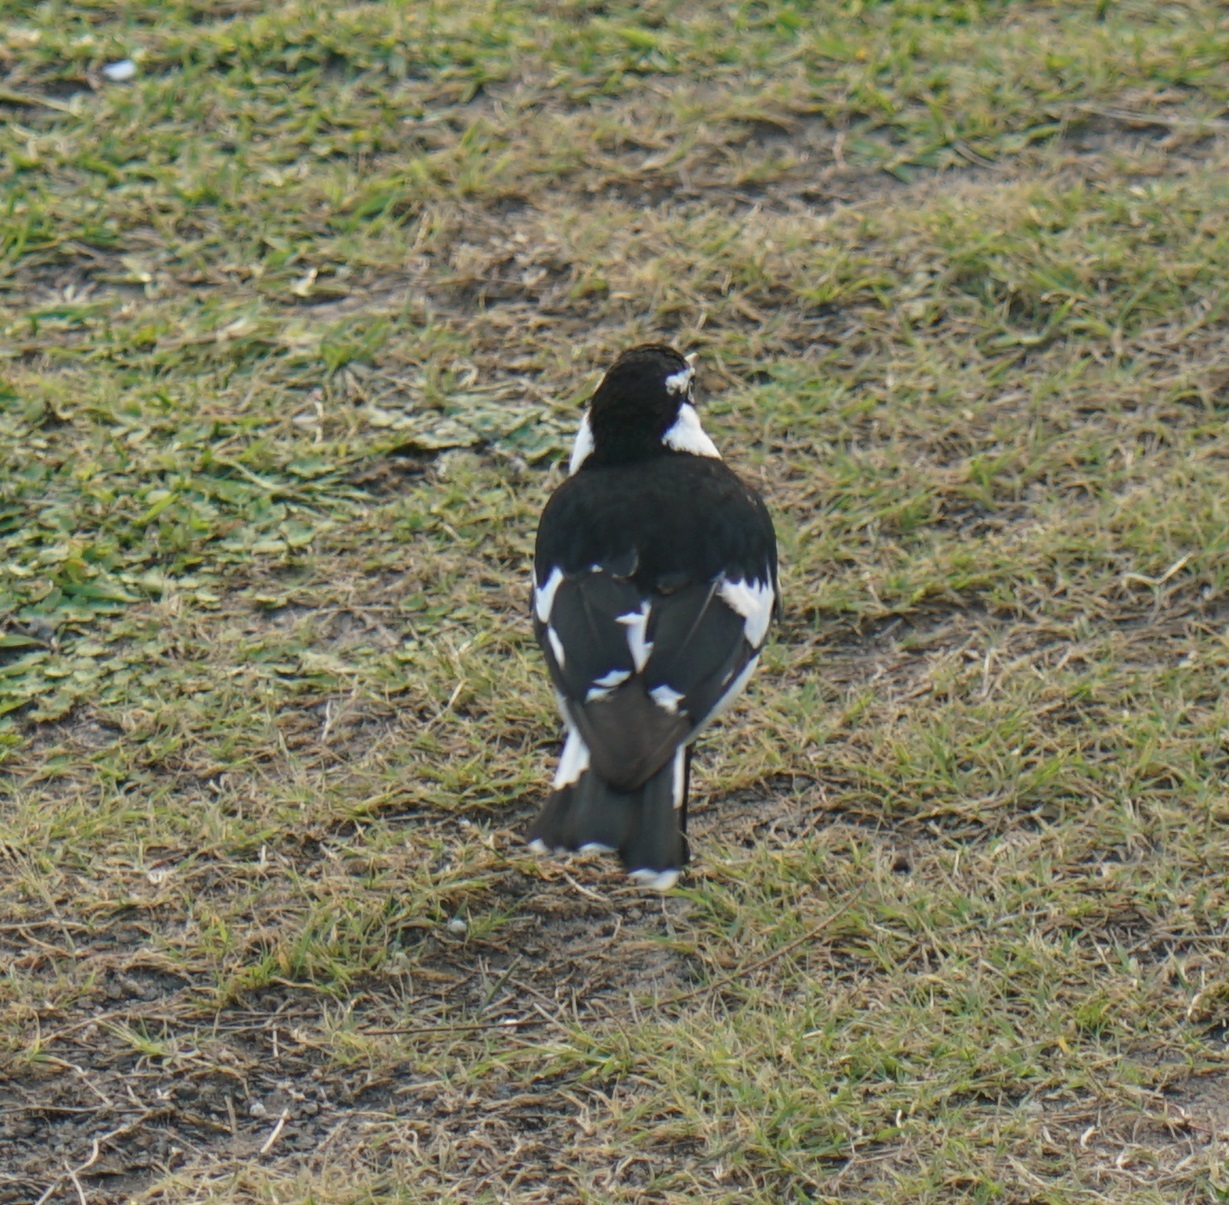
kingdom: Animalia
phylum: Chordata
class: Aves
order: Passeriformes
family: Monarchidae
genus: Grallina
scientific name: Grallina cyanoleuca
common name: Magpie-lark
